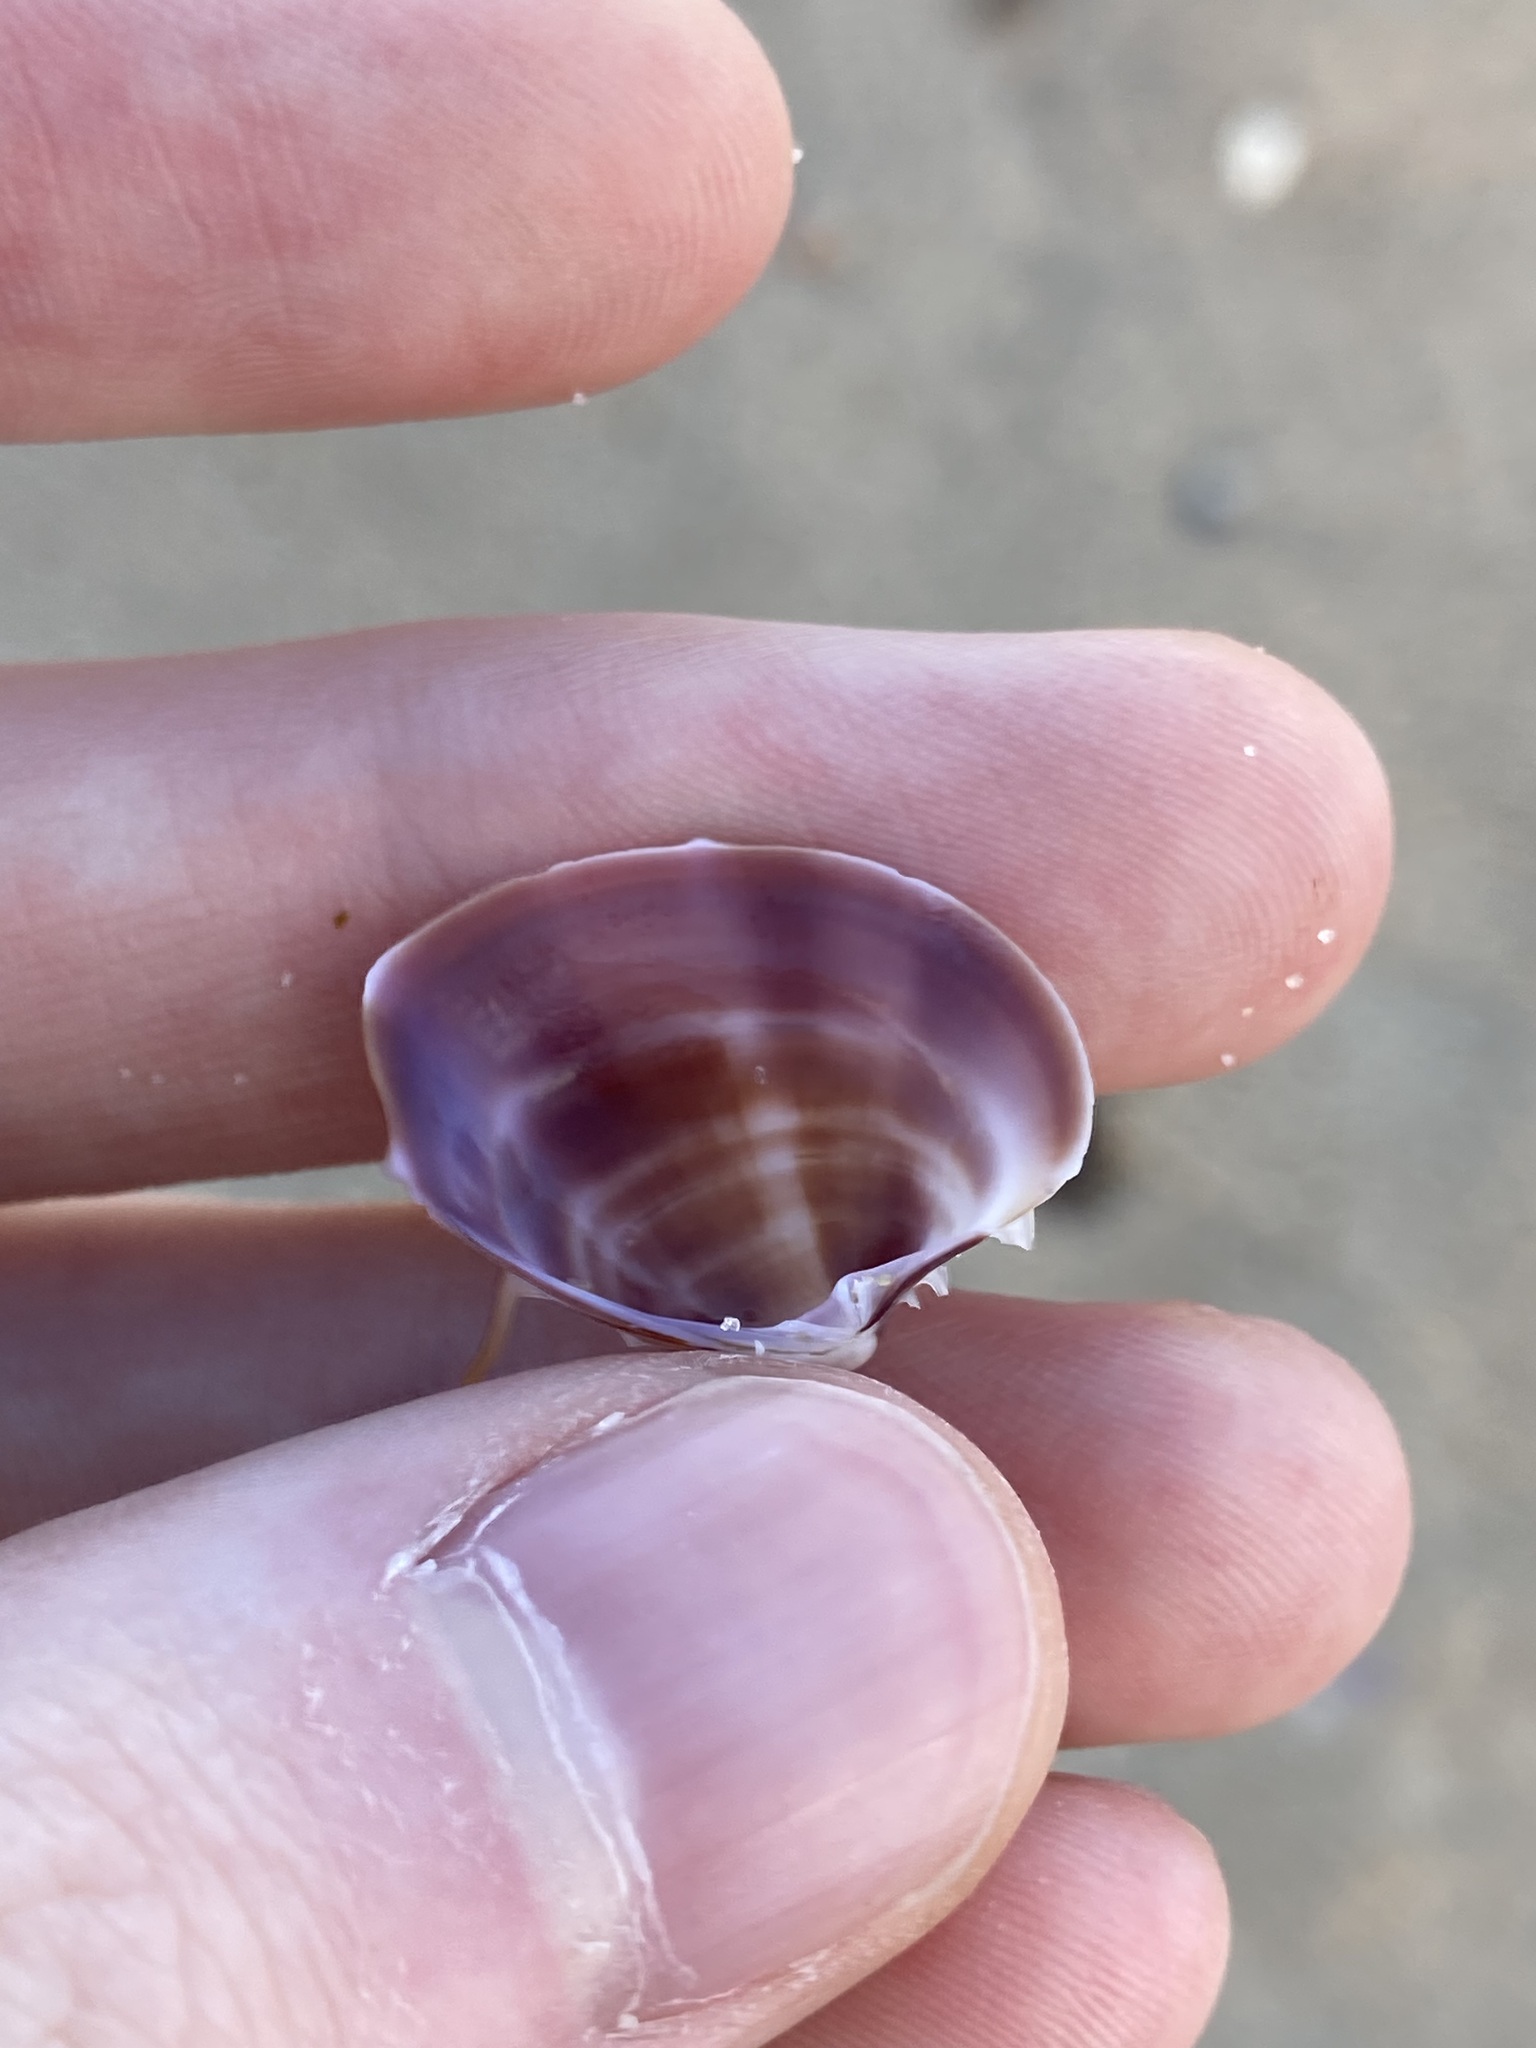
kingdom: Animalia
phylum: Mollusca
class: Bivalvia
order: Venerida
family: Veneridae
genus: Bassina
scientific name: Bassina jacksonii
